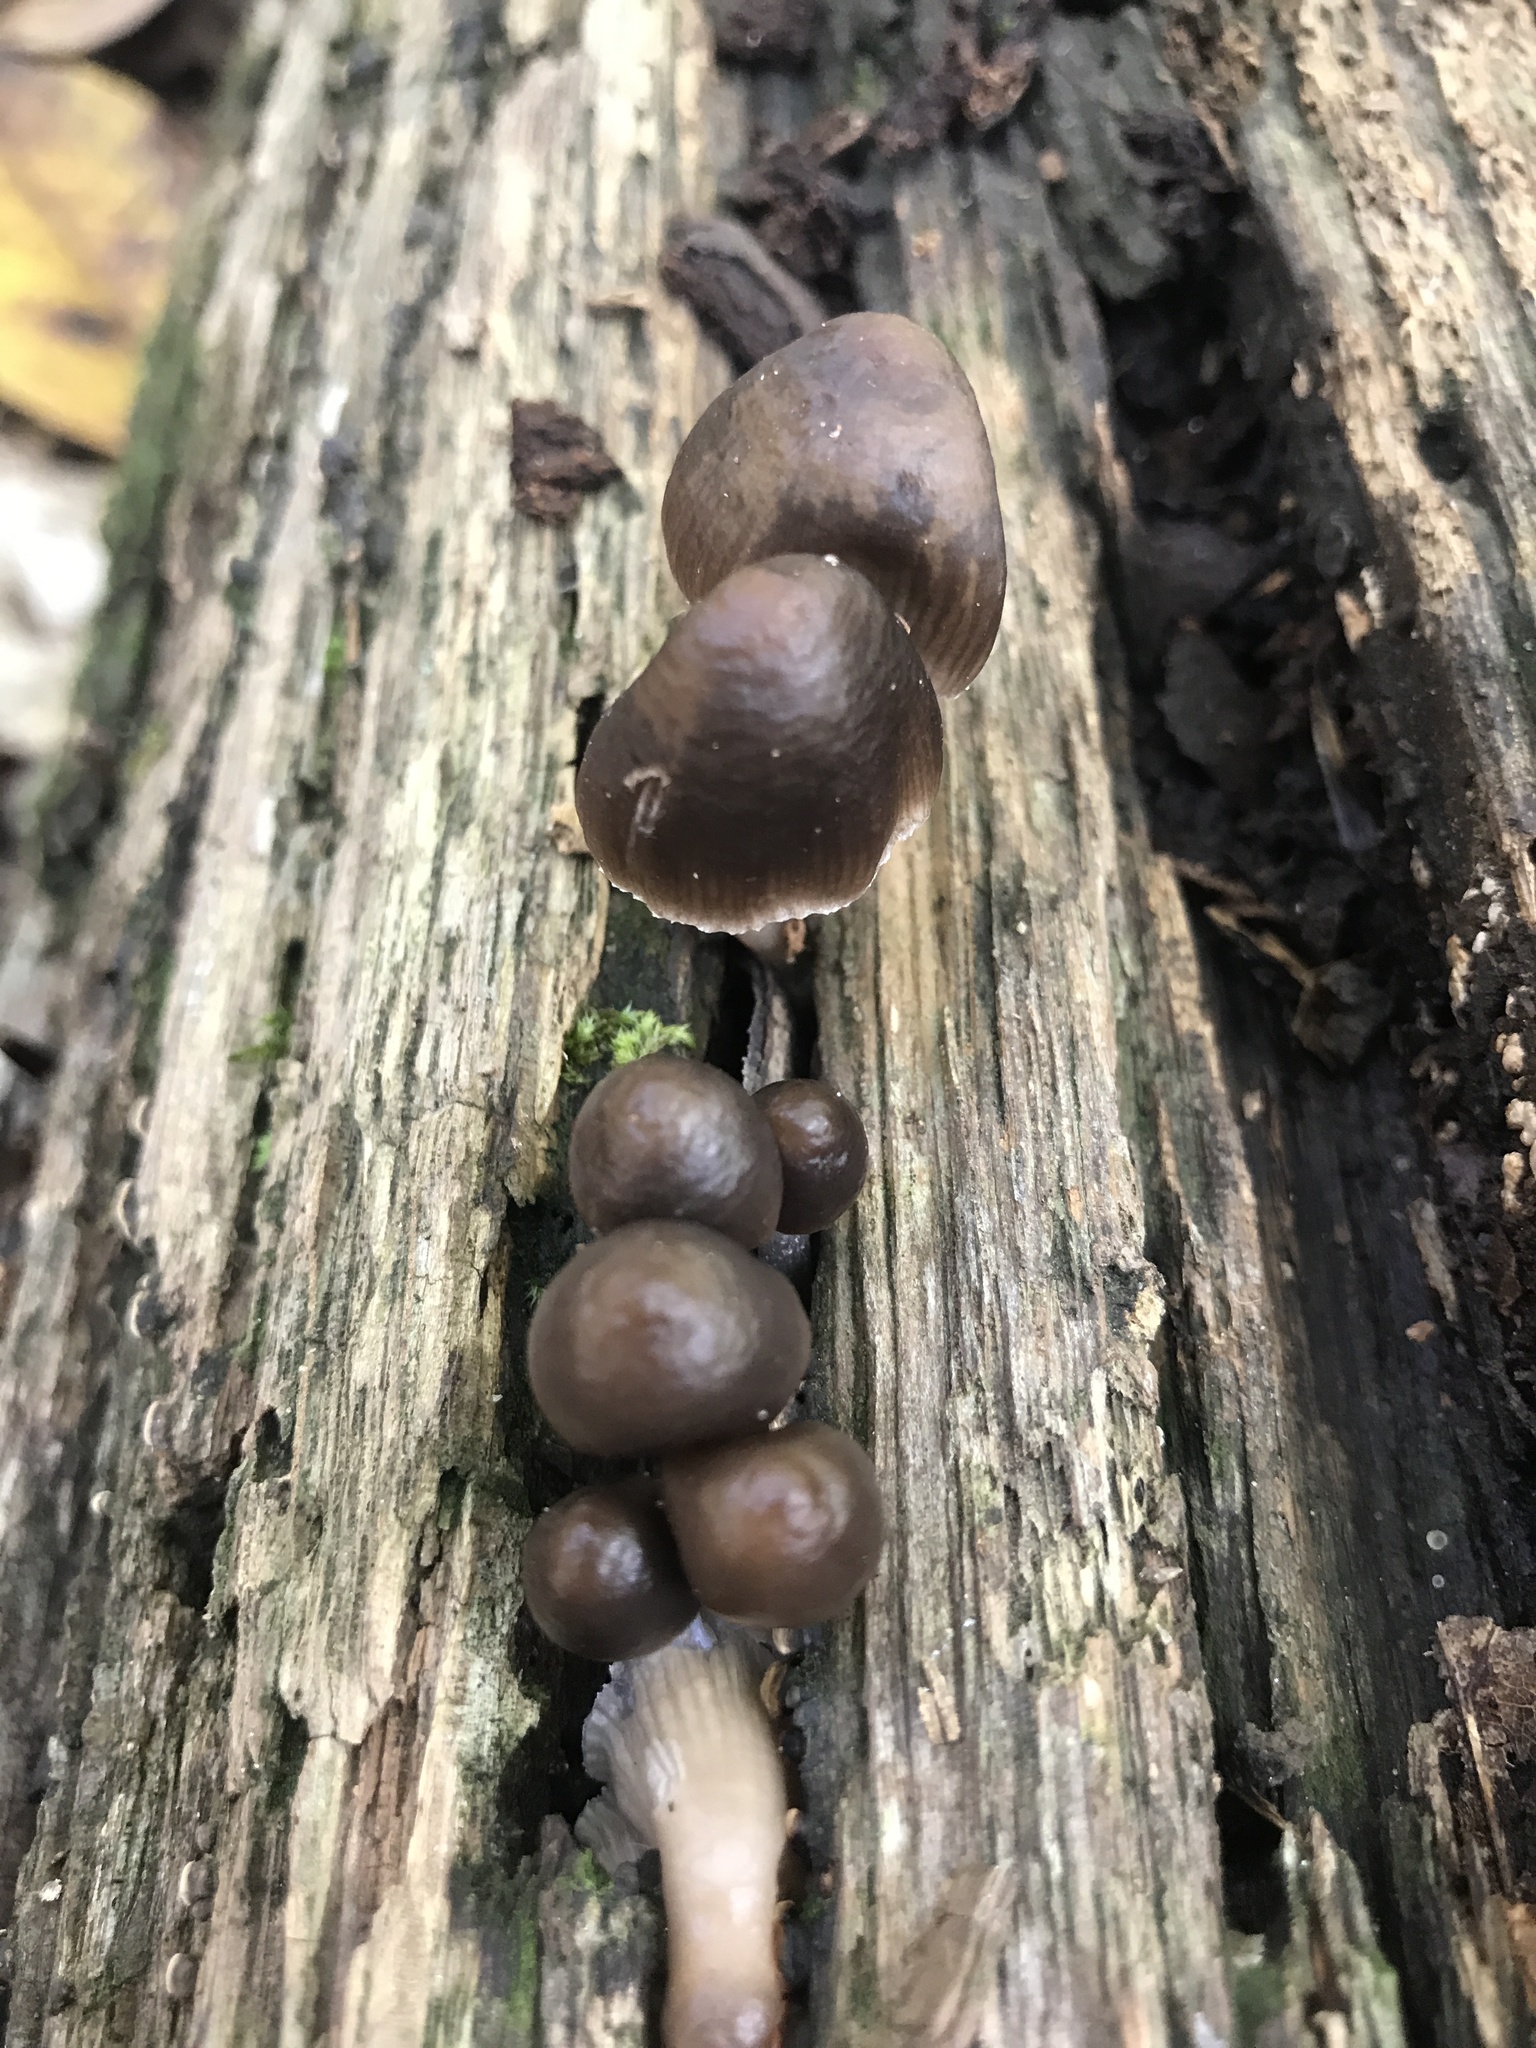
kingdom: Fungi
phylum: Basidiomycota
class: Agaricomycetes
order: Agaricales
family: Mycenaceae
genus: Mycena
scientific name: Mycena leptocephala
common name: Nitrous bonnet
